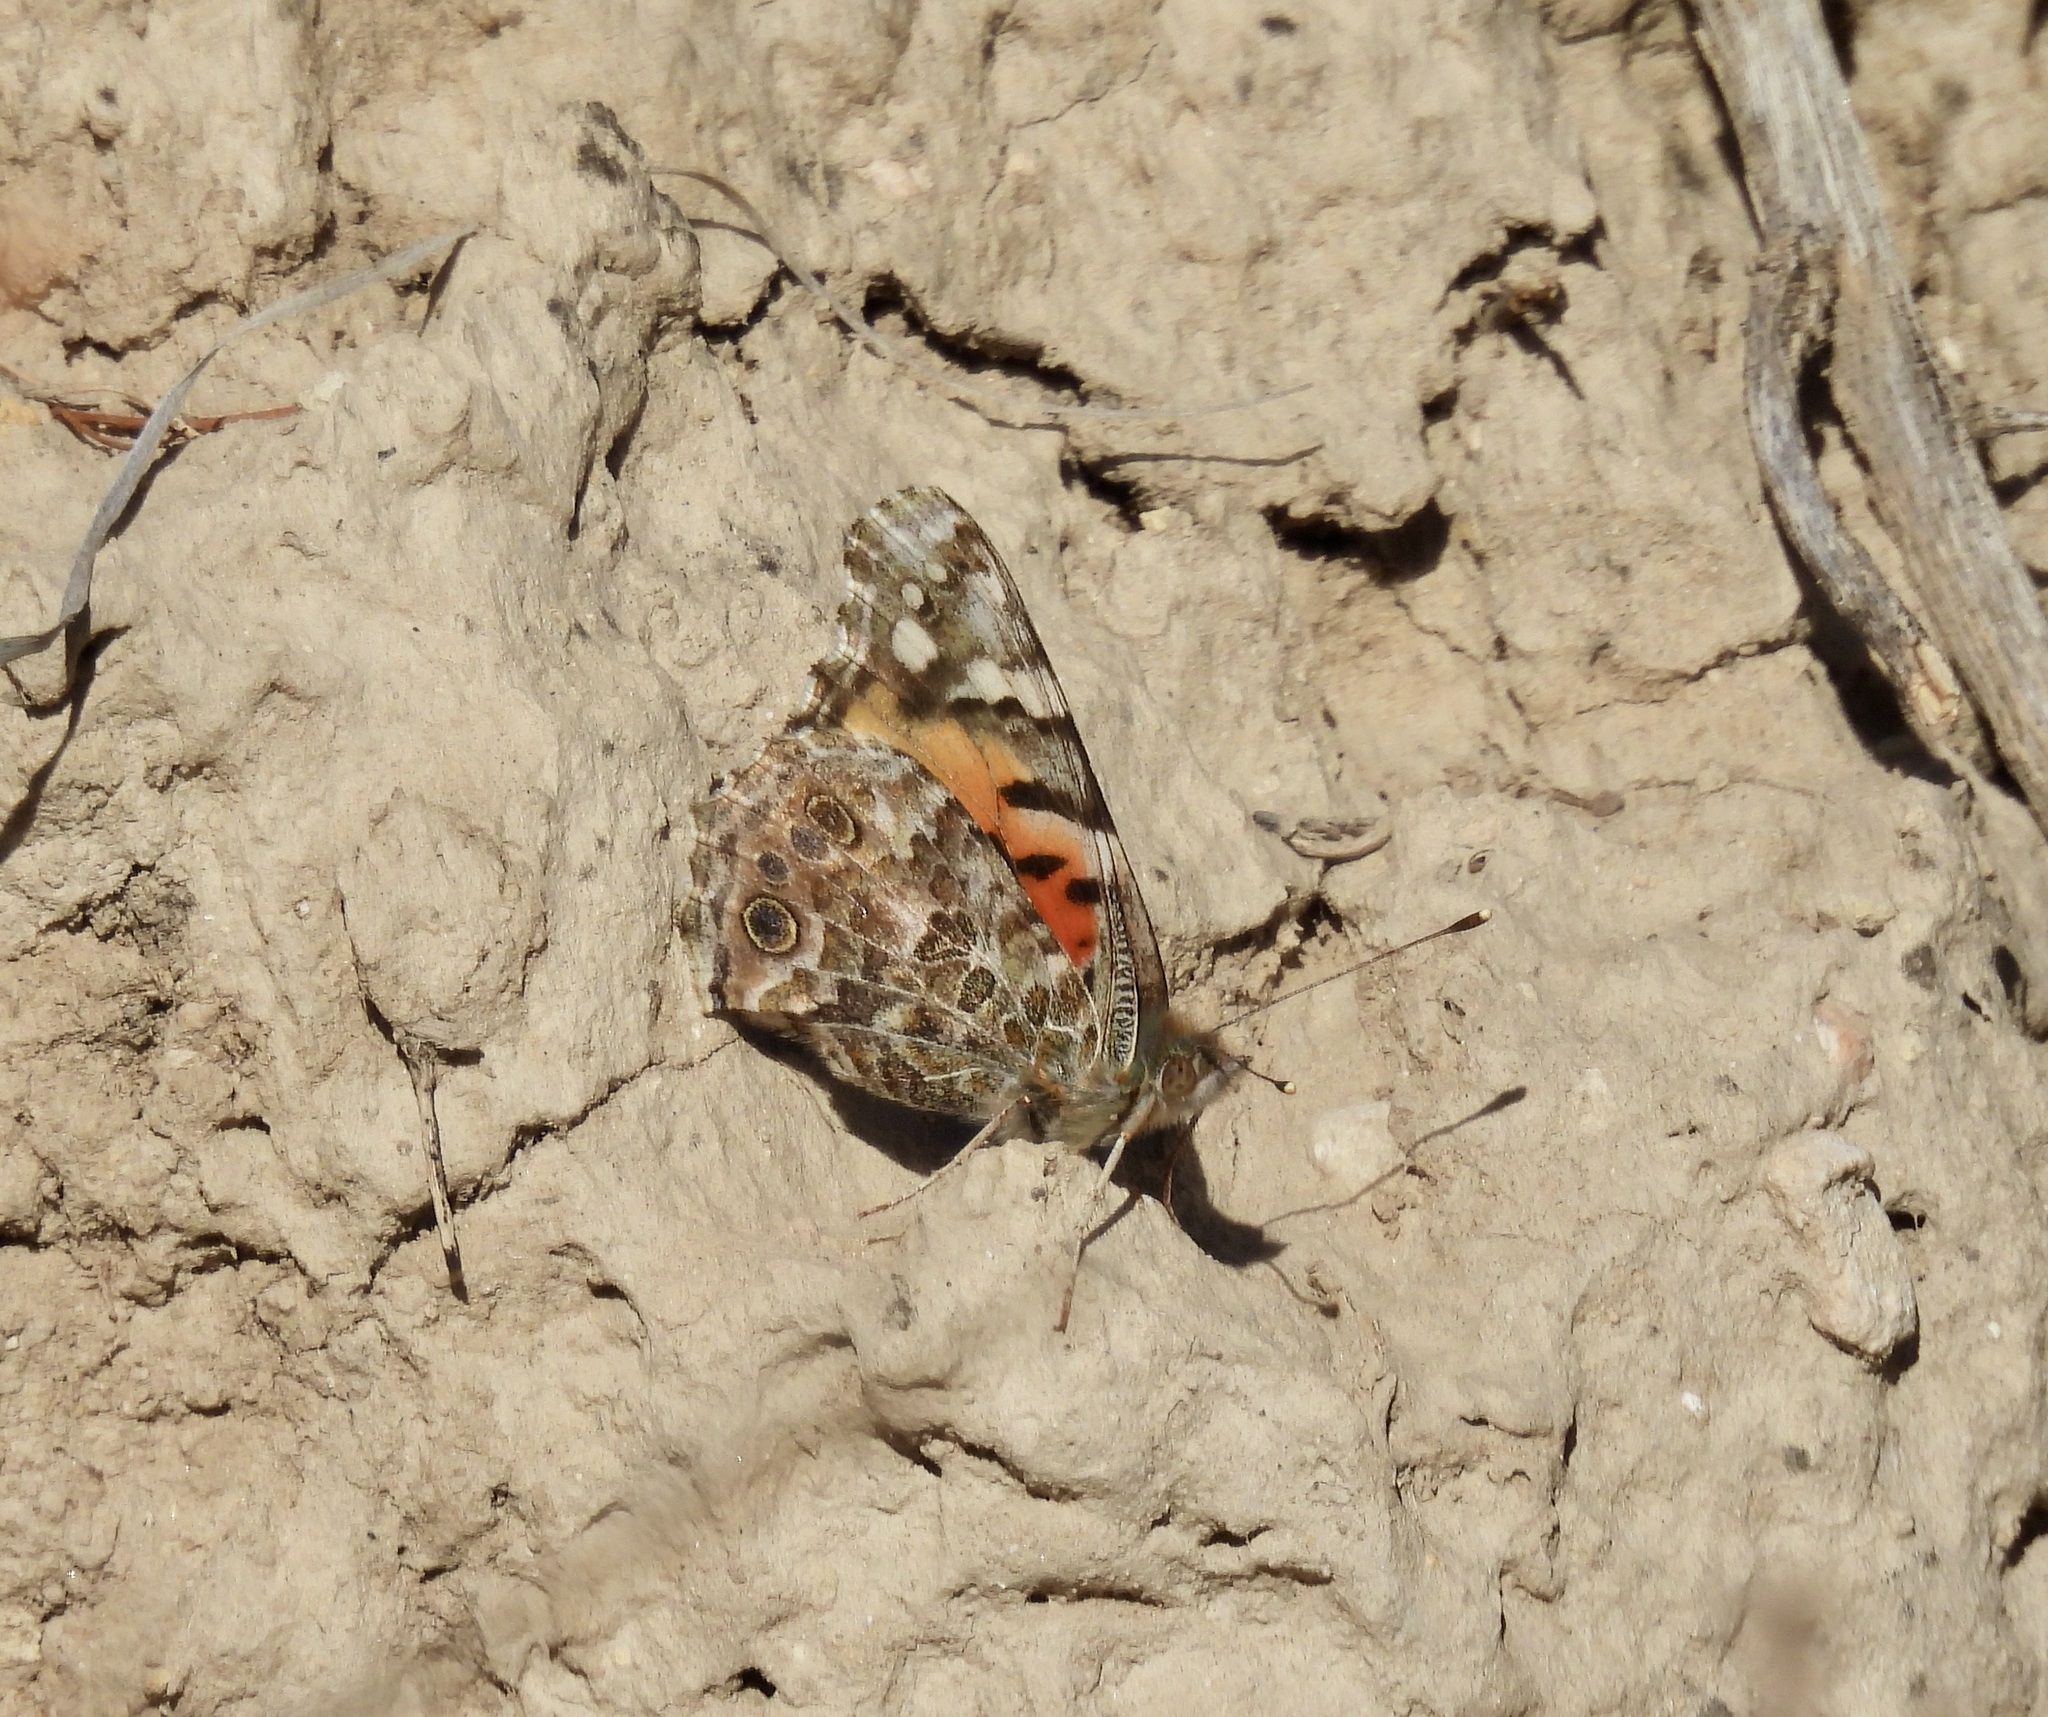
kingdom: Animalia
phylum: Arthropoda
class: Insecta
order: Lepidoptera
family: Nymphalidae
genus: Vanessa
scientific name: Vanessa cardui
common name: Painted lady
